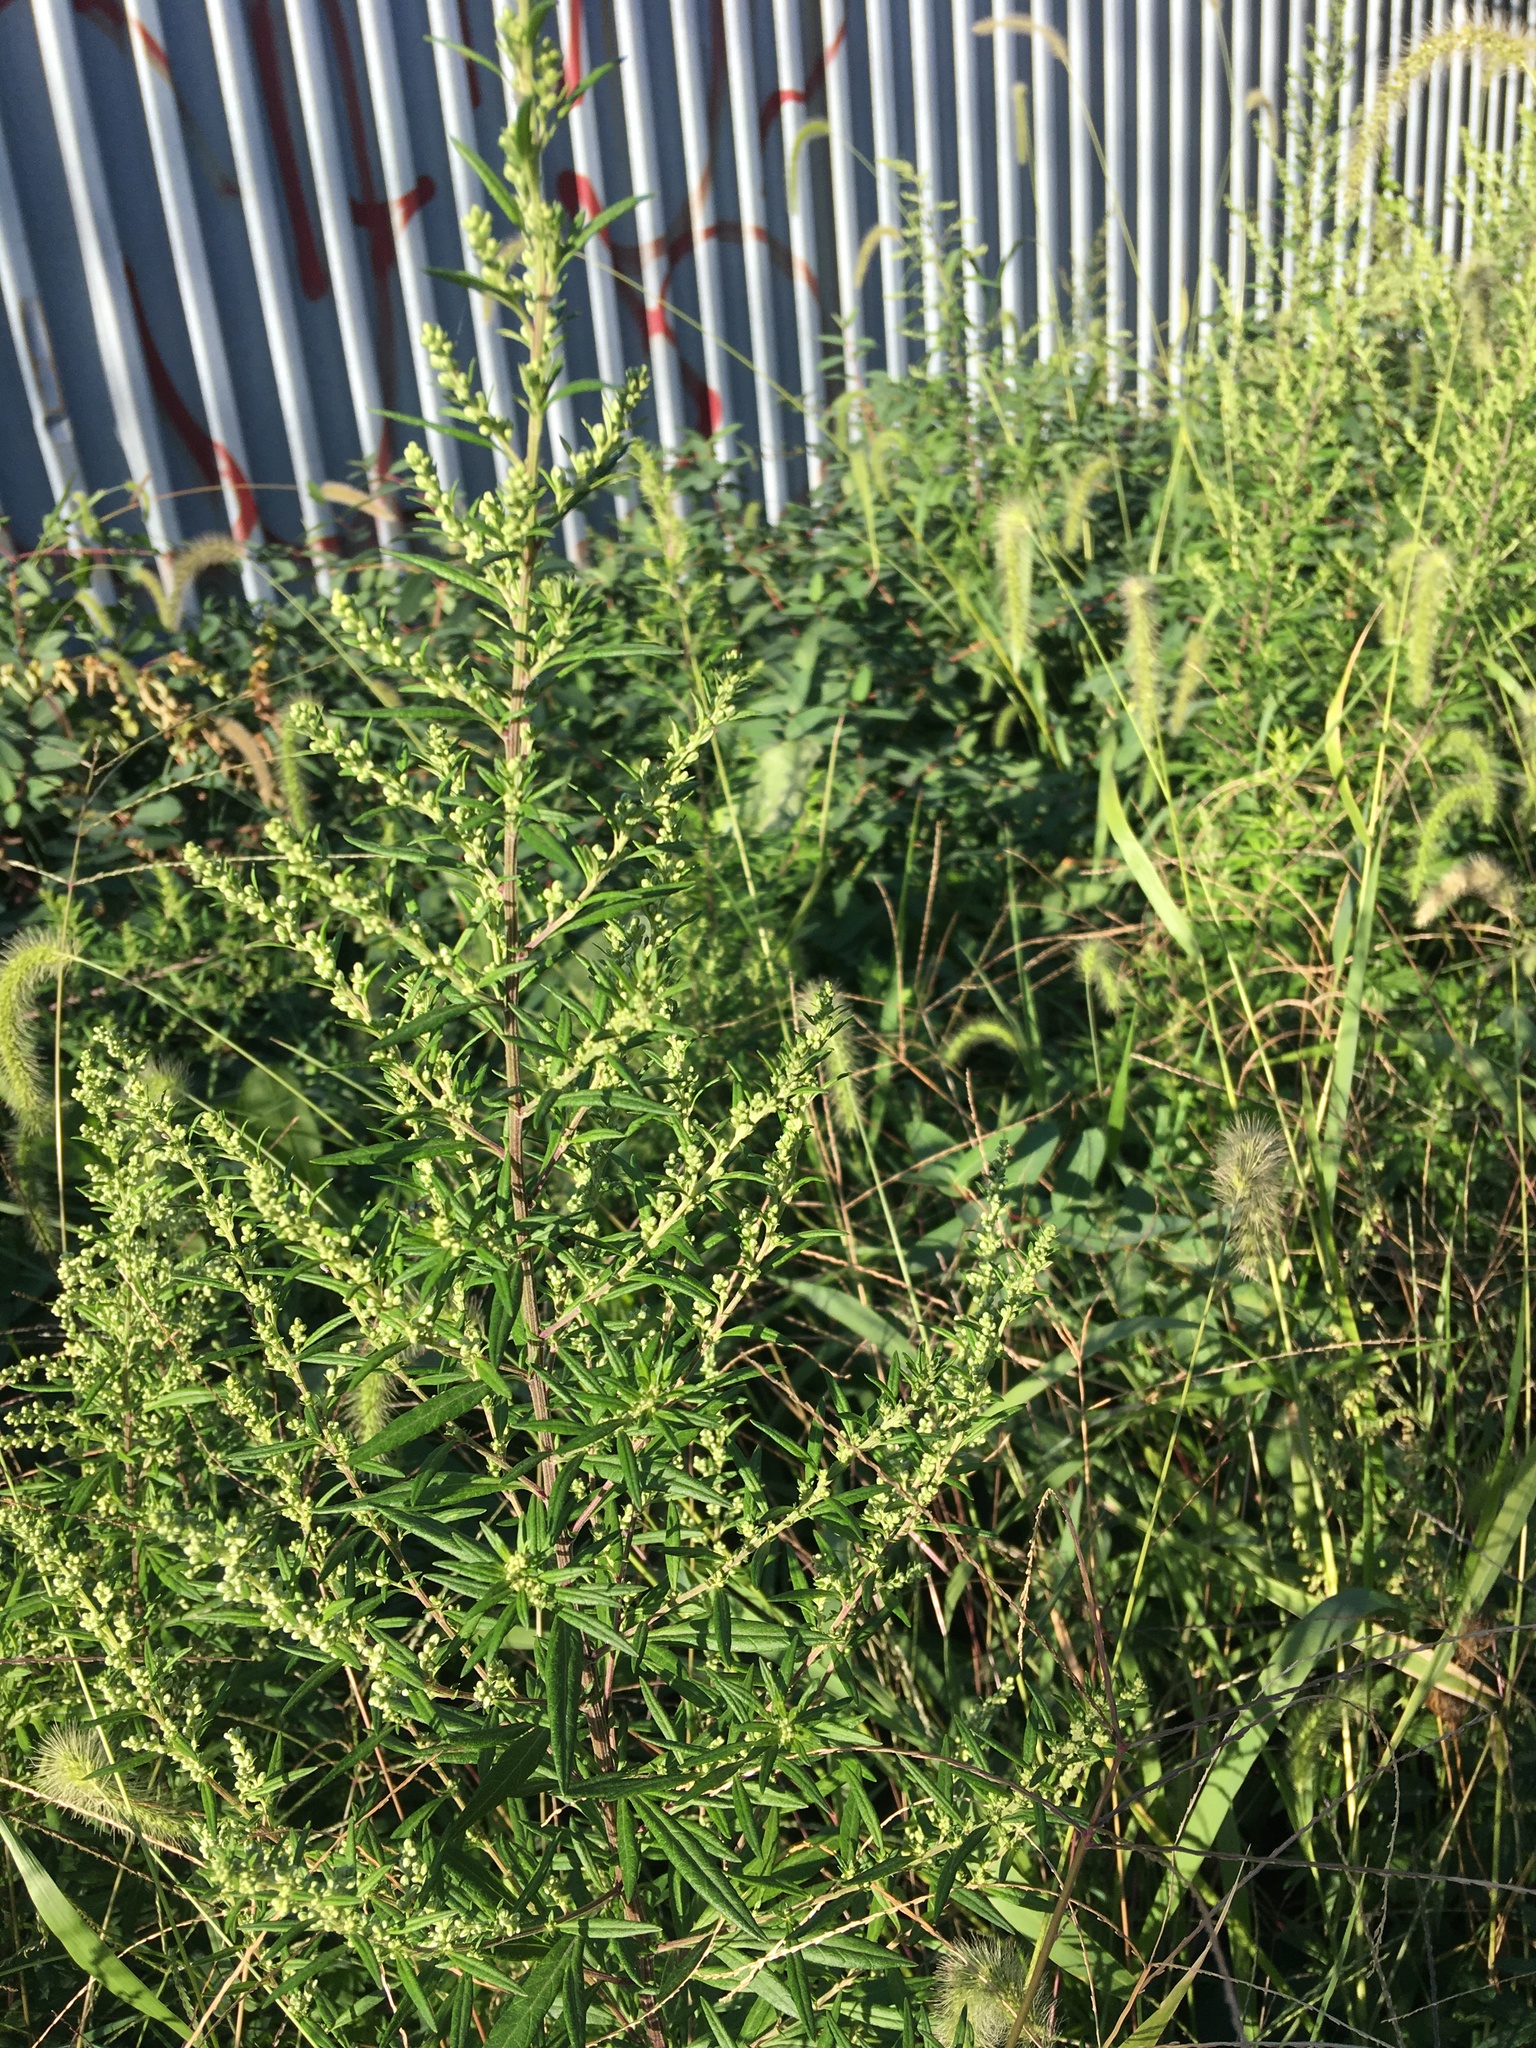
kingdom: Plantae
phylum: Tracheophyta
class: Magnoliopsida
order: Asterales
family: Asteraceae
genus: Artemisia
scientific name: Artemisia vulgaris
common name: Mugwort
